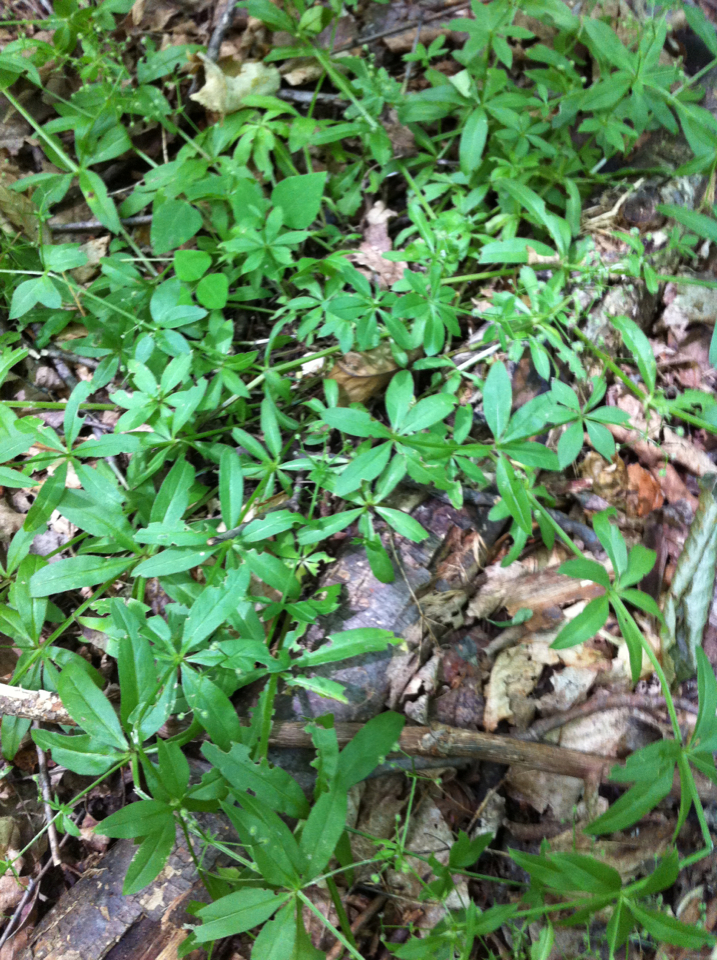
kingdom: Plantae
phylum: Tracheophyta
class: Magnoliopsida
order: Gentianales
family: Rubiaceae
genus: Galium
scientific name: Galium triflorum
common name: Fragrant bedstraw
